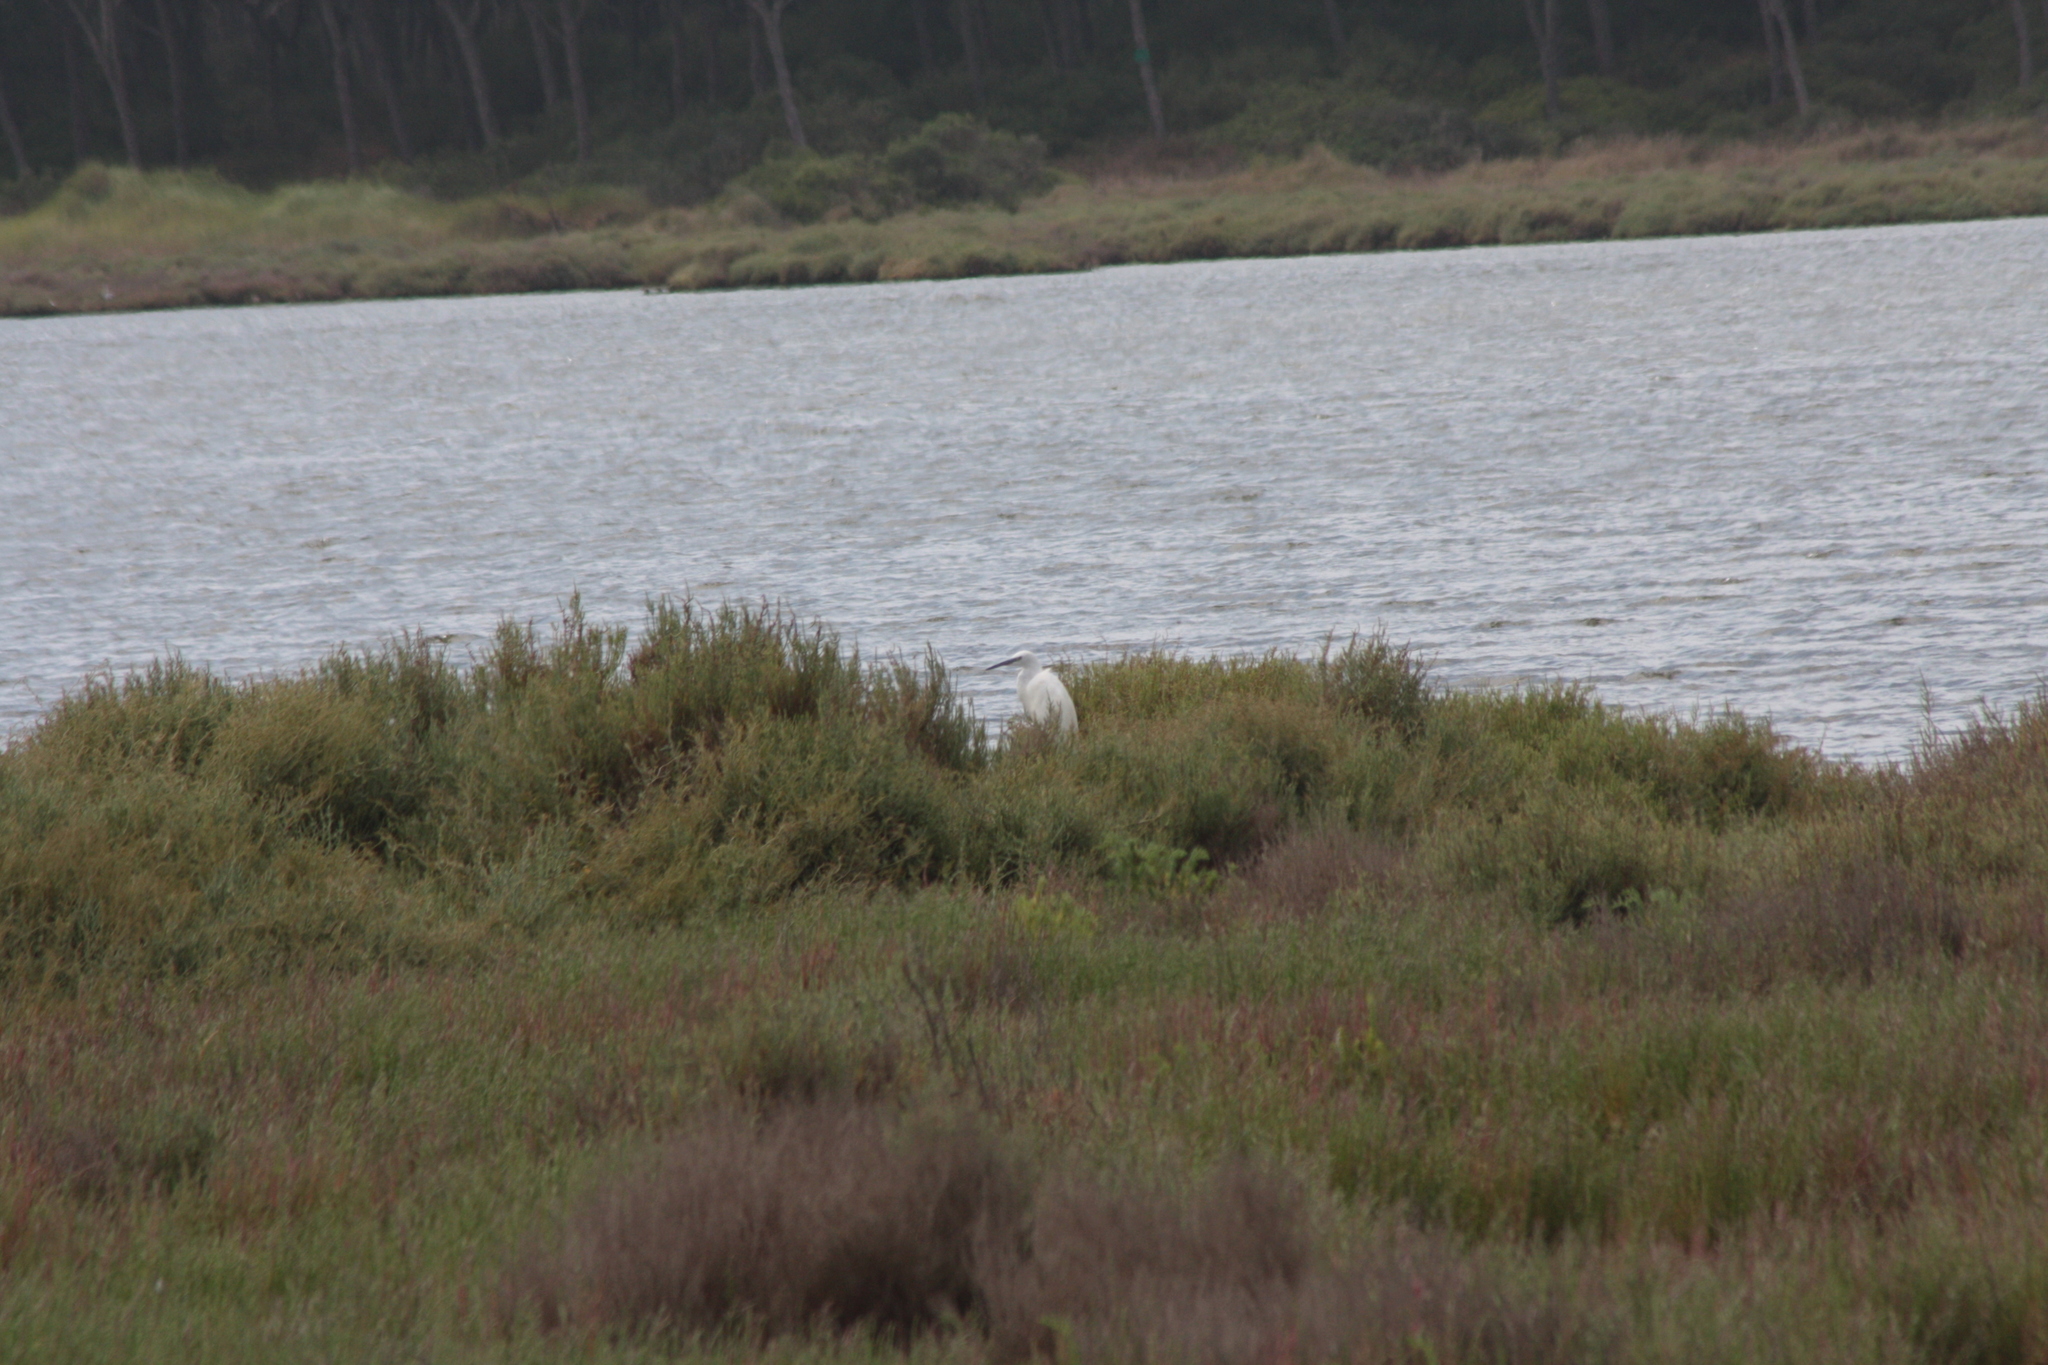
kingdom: Animalia
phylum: Chordata
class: Aves
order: Pelecaniformes
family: Ardeidae
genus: Egretta
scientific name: Egretta garzetta
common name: Little egret
